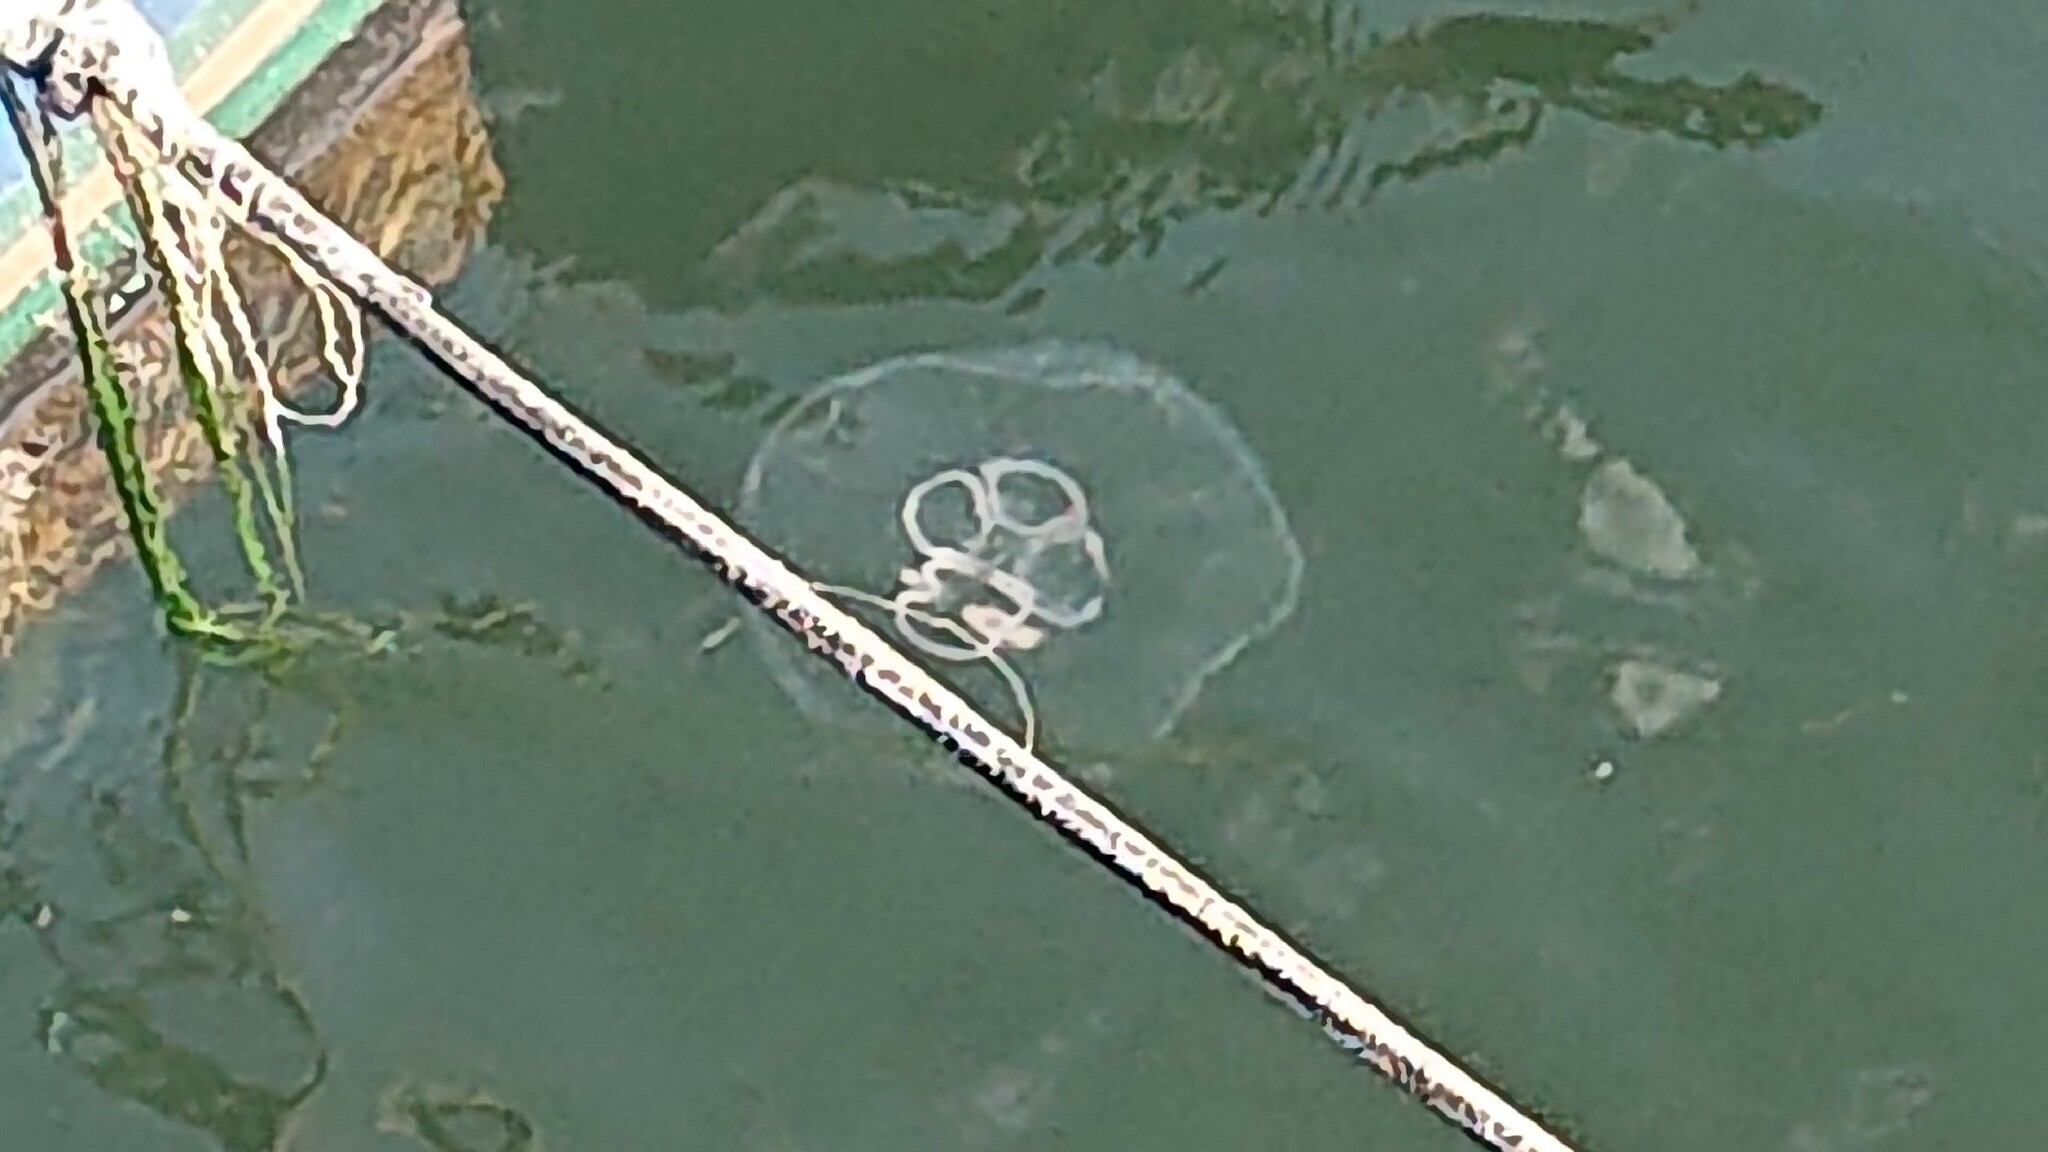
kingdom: Animalia
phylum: Cnidaria
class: Scyphozoa
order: Semaeostomeae
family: Ulmaridae
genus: Aurelia
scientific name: Aurelia aurita
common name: Moon jellyfish
